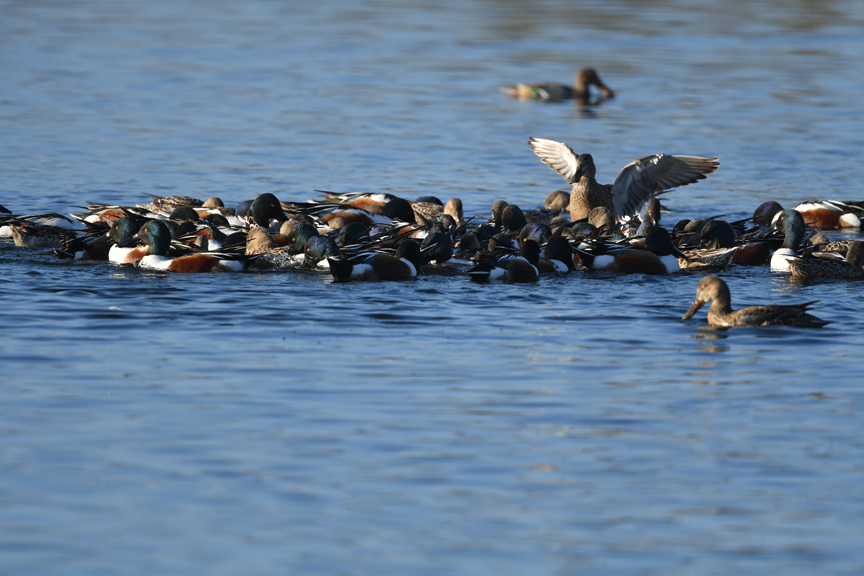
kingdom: Animalia
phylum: Chordata
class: Aves
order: Anseriformes
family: Anatidae
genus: Spatula
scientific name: Spatula clypeata
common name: Northern shoveler
